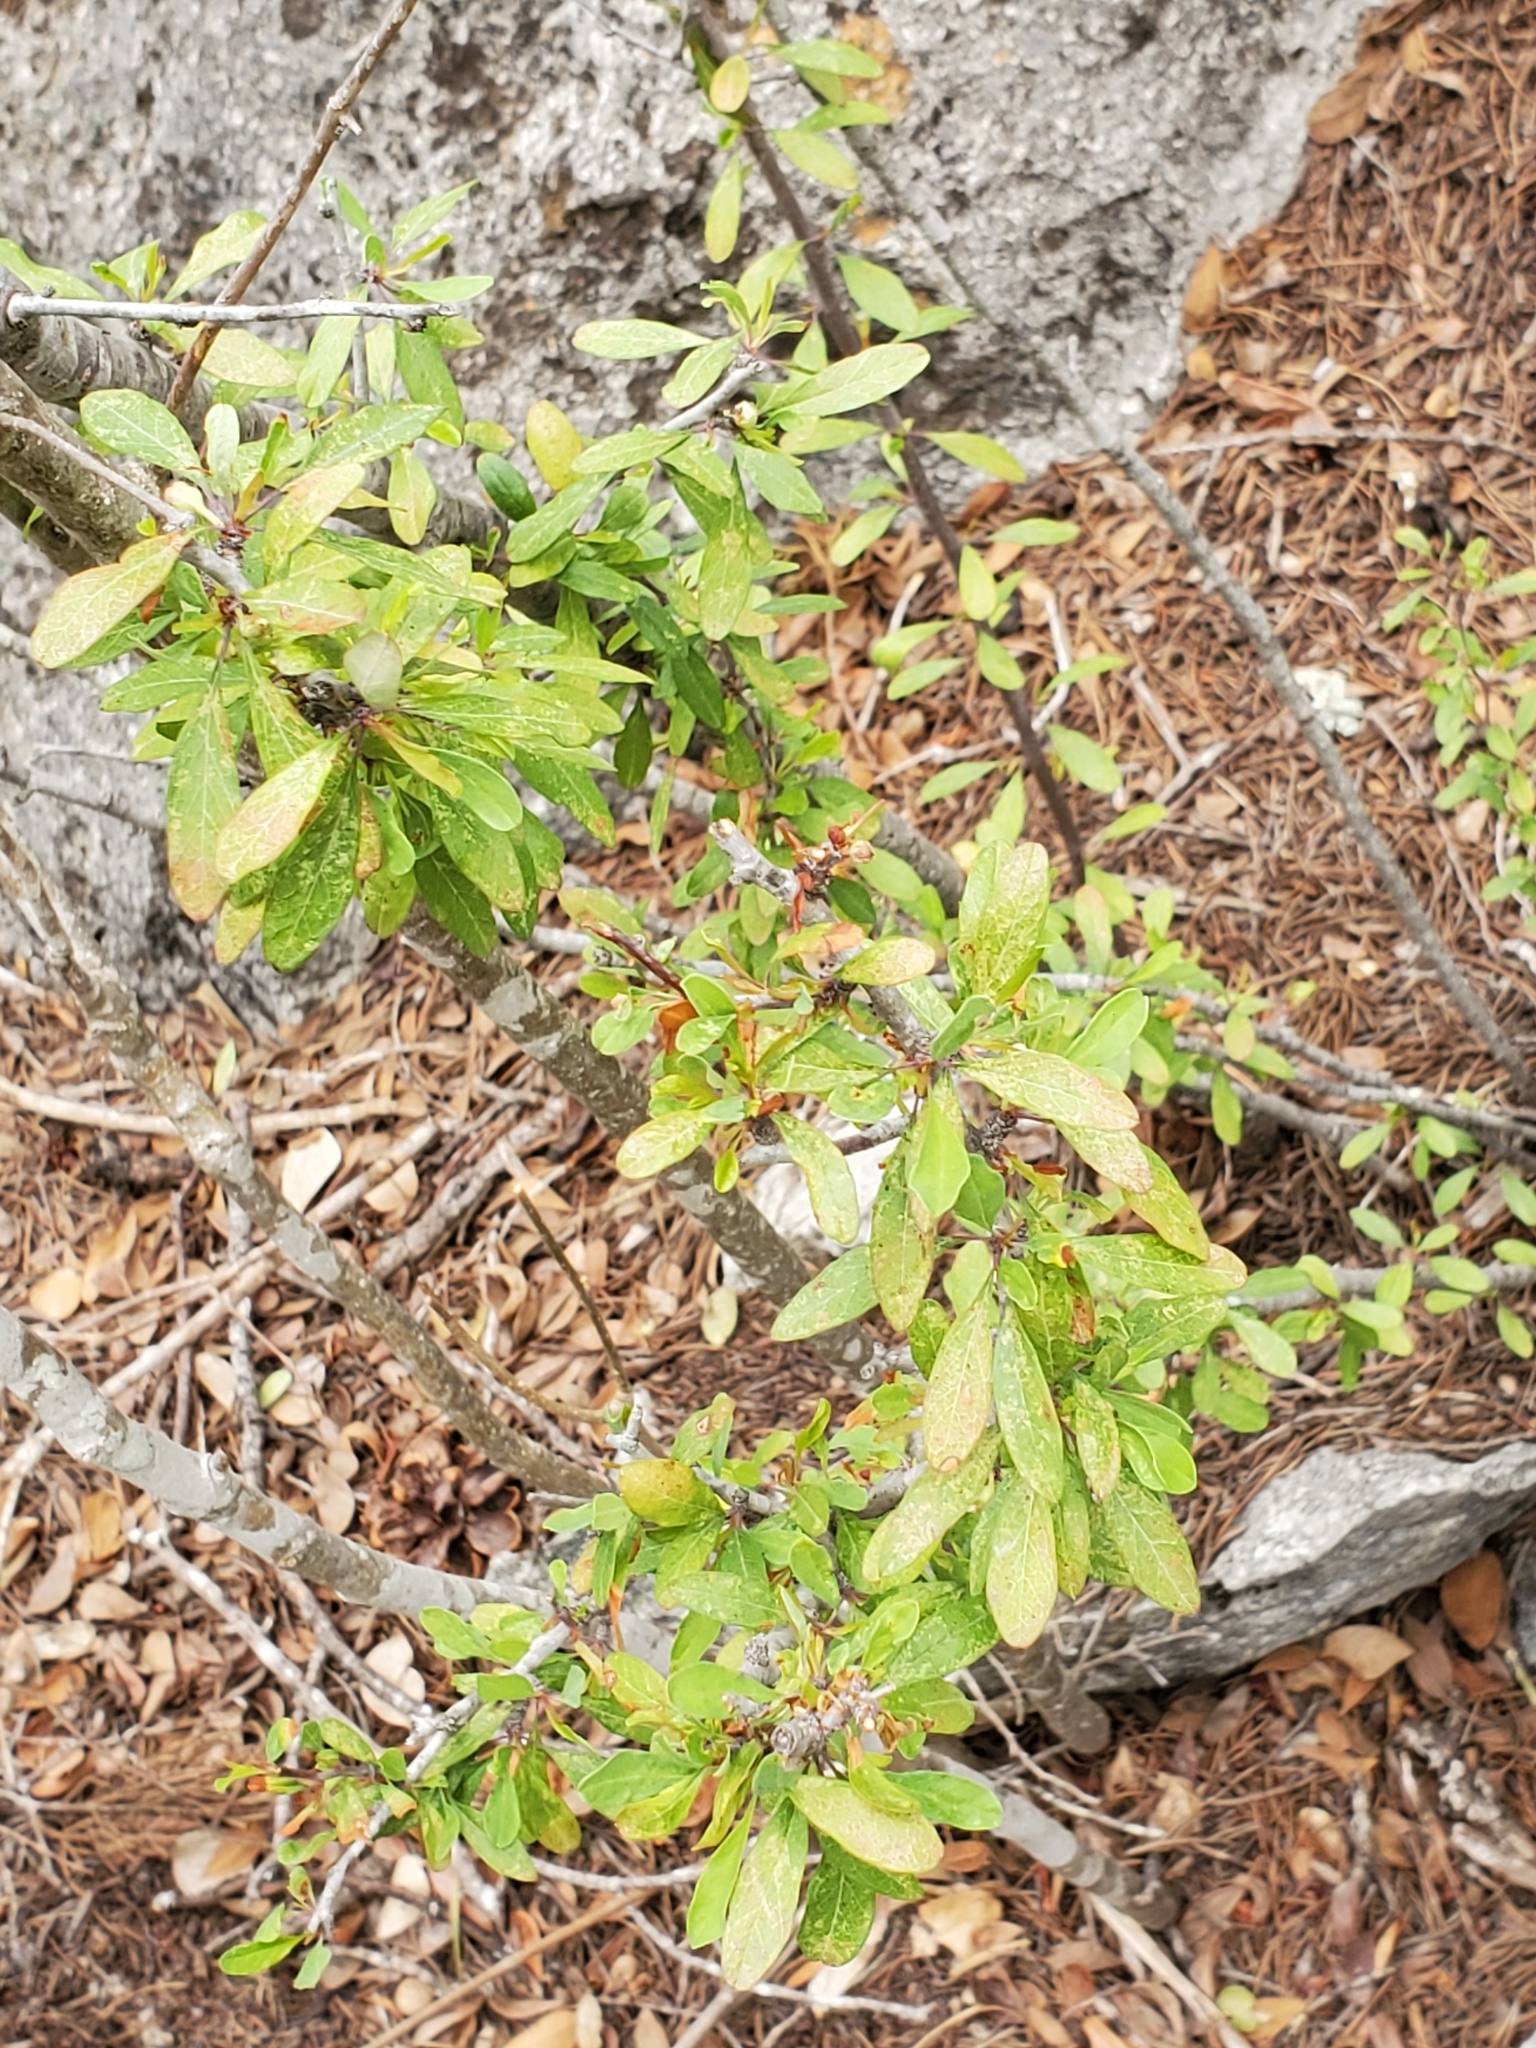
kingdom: Plantae
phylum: Tracheophyta
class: Magnoliopsida
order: Ericales
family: Sapotaceae
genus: Sideroxylon
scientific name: Sideroxylon lanuginosum
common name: Chittamwood
